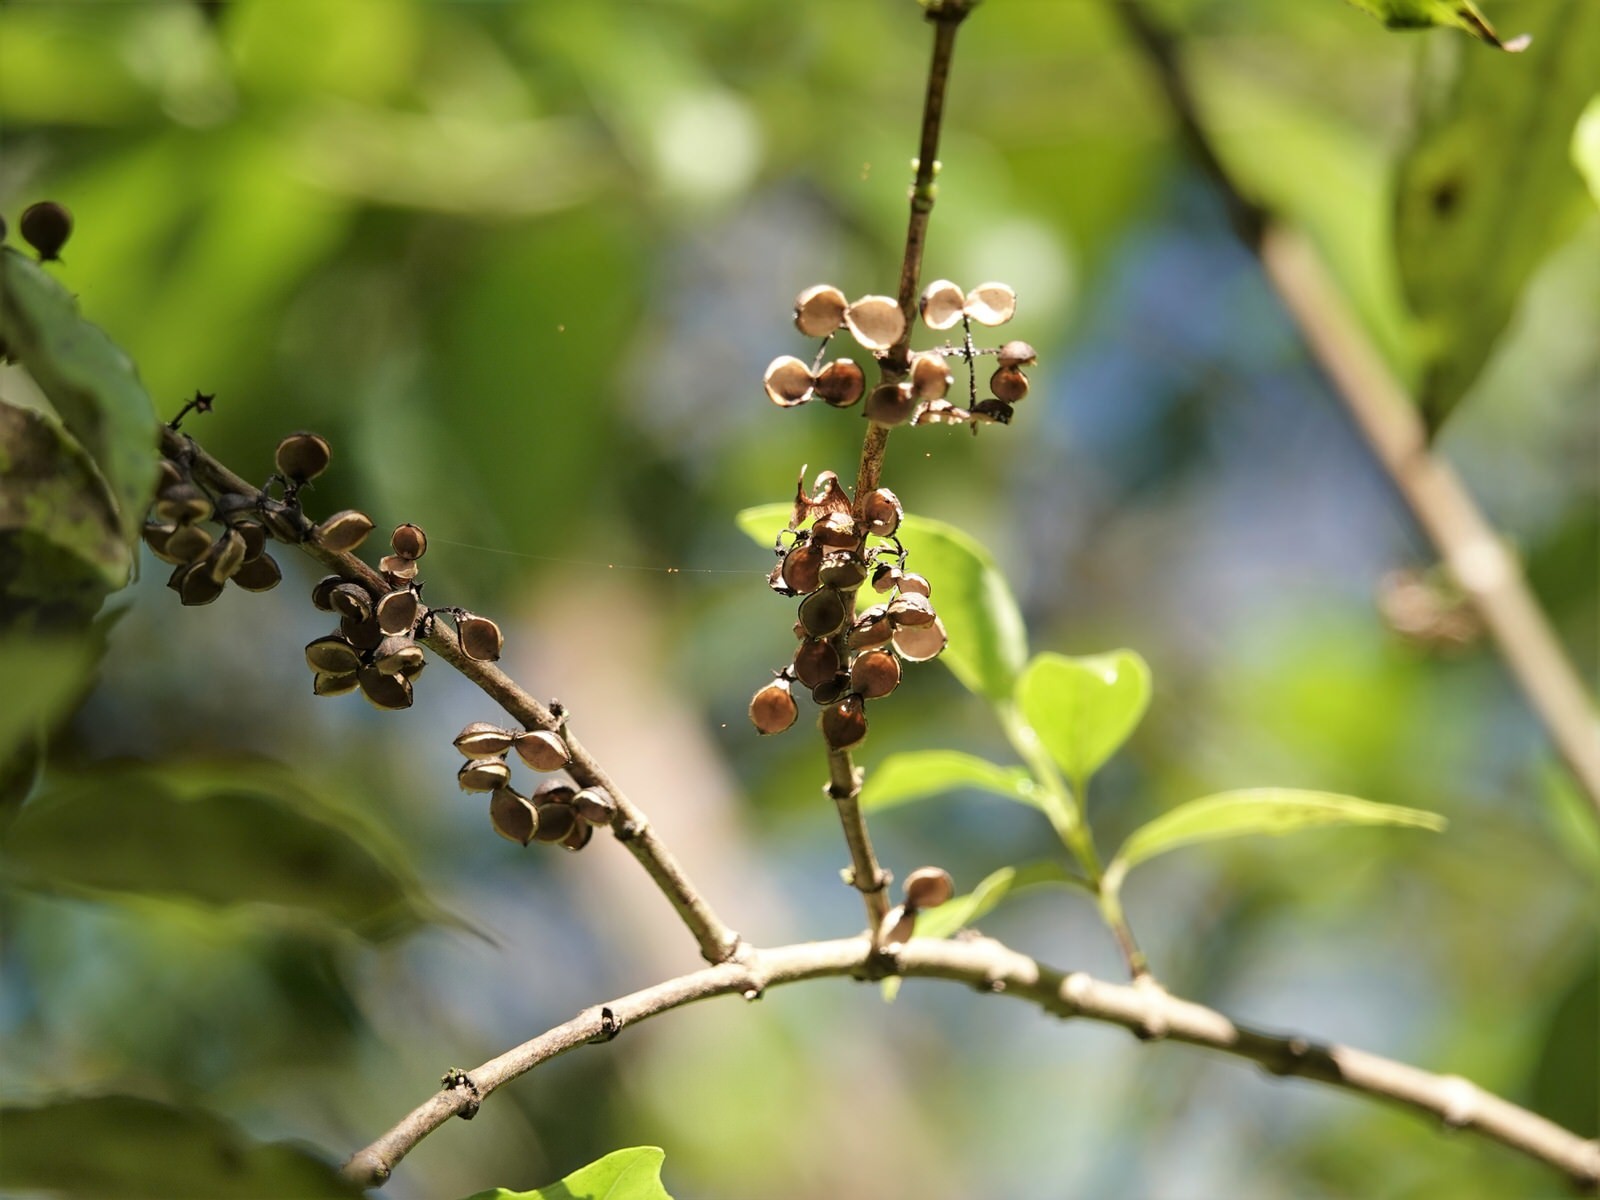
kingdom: Plantae
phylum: Tracheophyta
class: Magnoliopsida
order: Gentianales
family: Loganiaceae
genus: Geniostoma
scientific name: Geniostoma ligustrifolium
